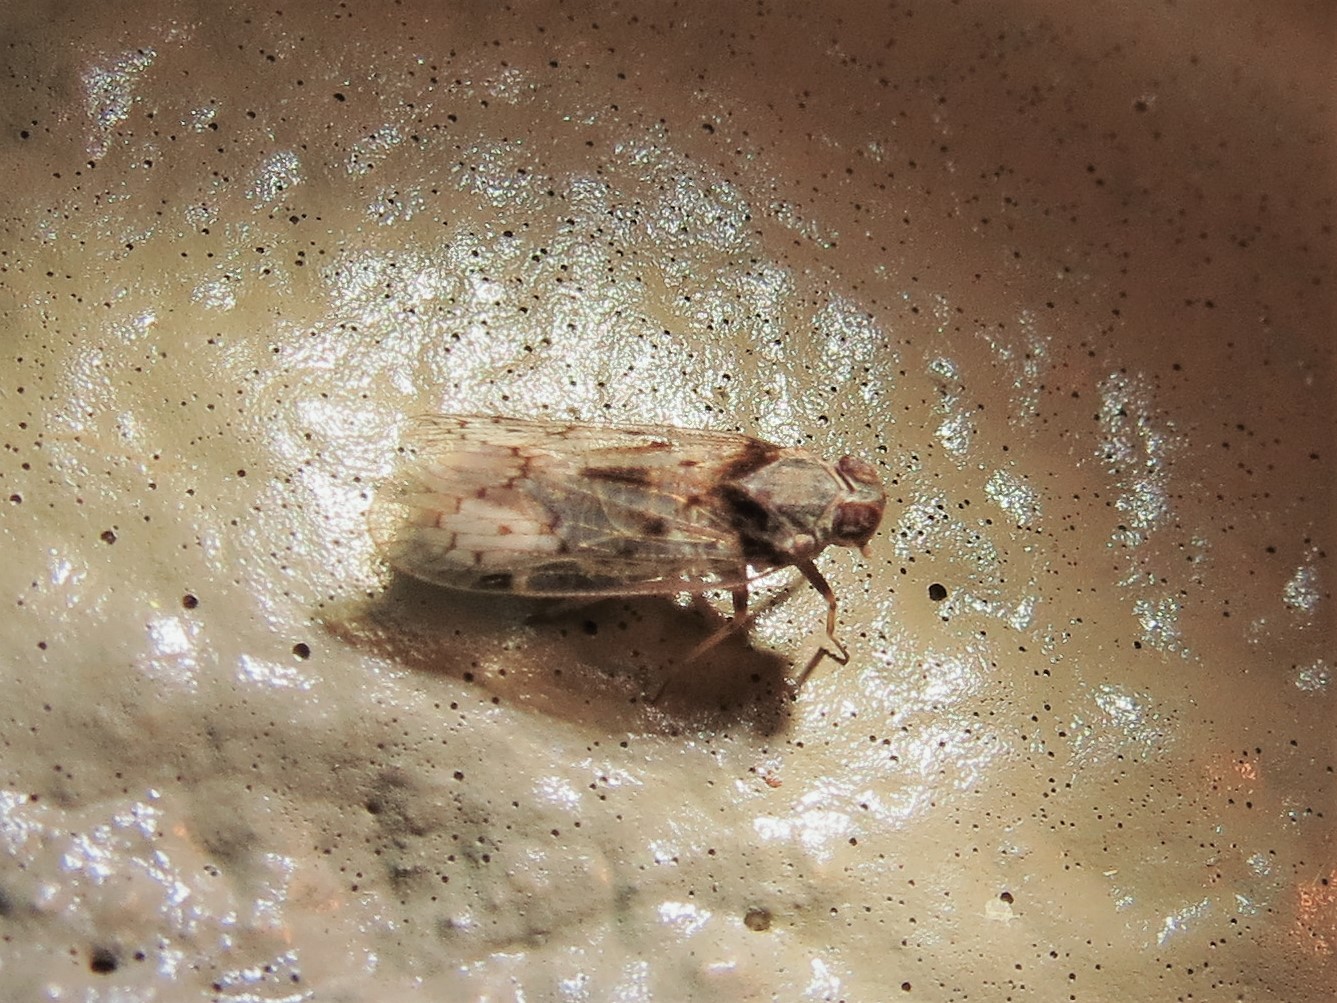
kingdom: Animalia
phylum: Arthropoda
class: Insecta
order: Hemiptera
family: Cixiidae
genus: Melanoliarus
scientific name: Melanoliarus aridus
